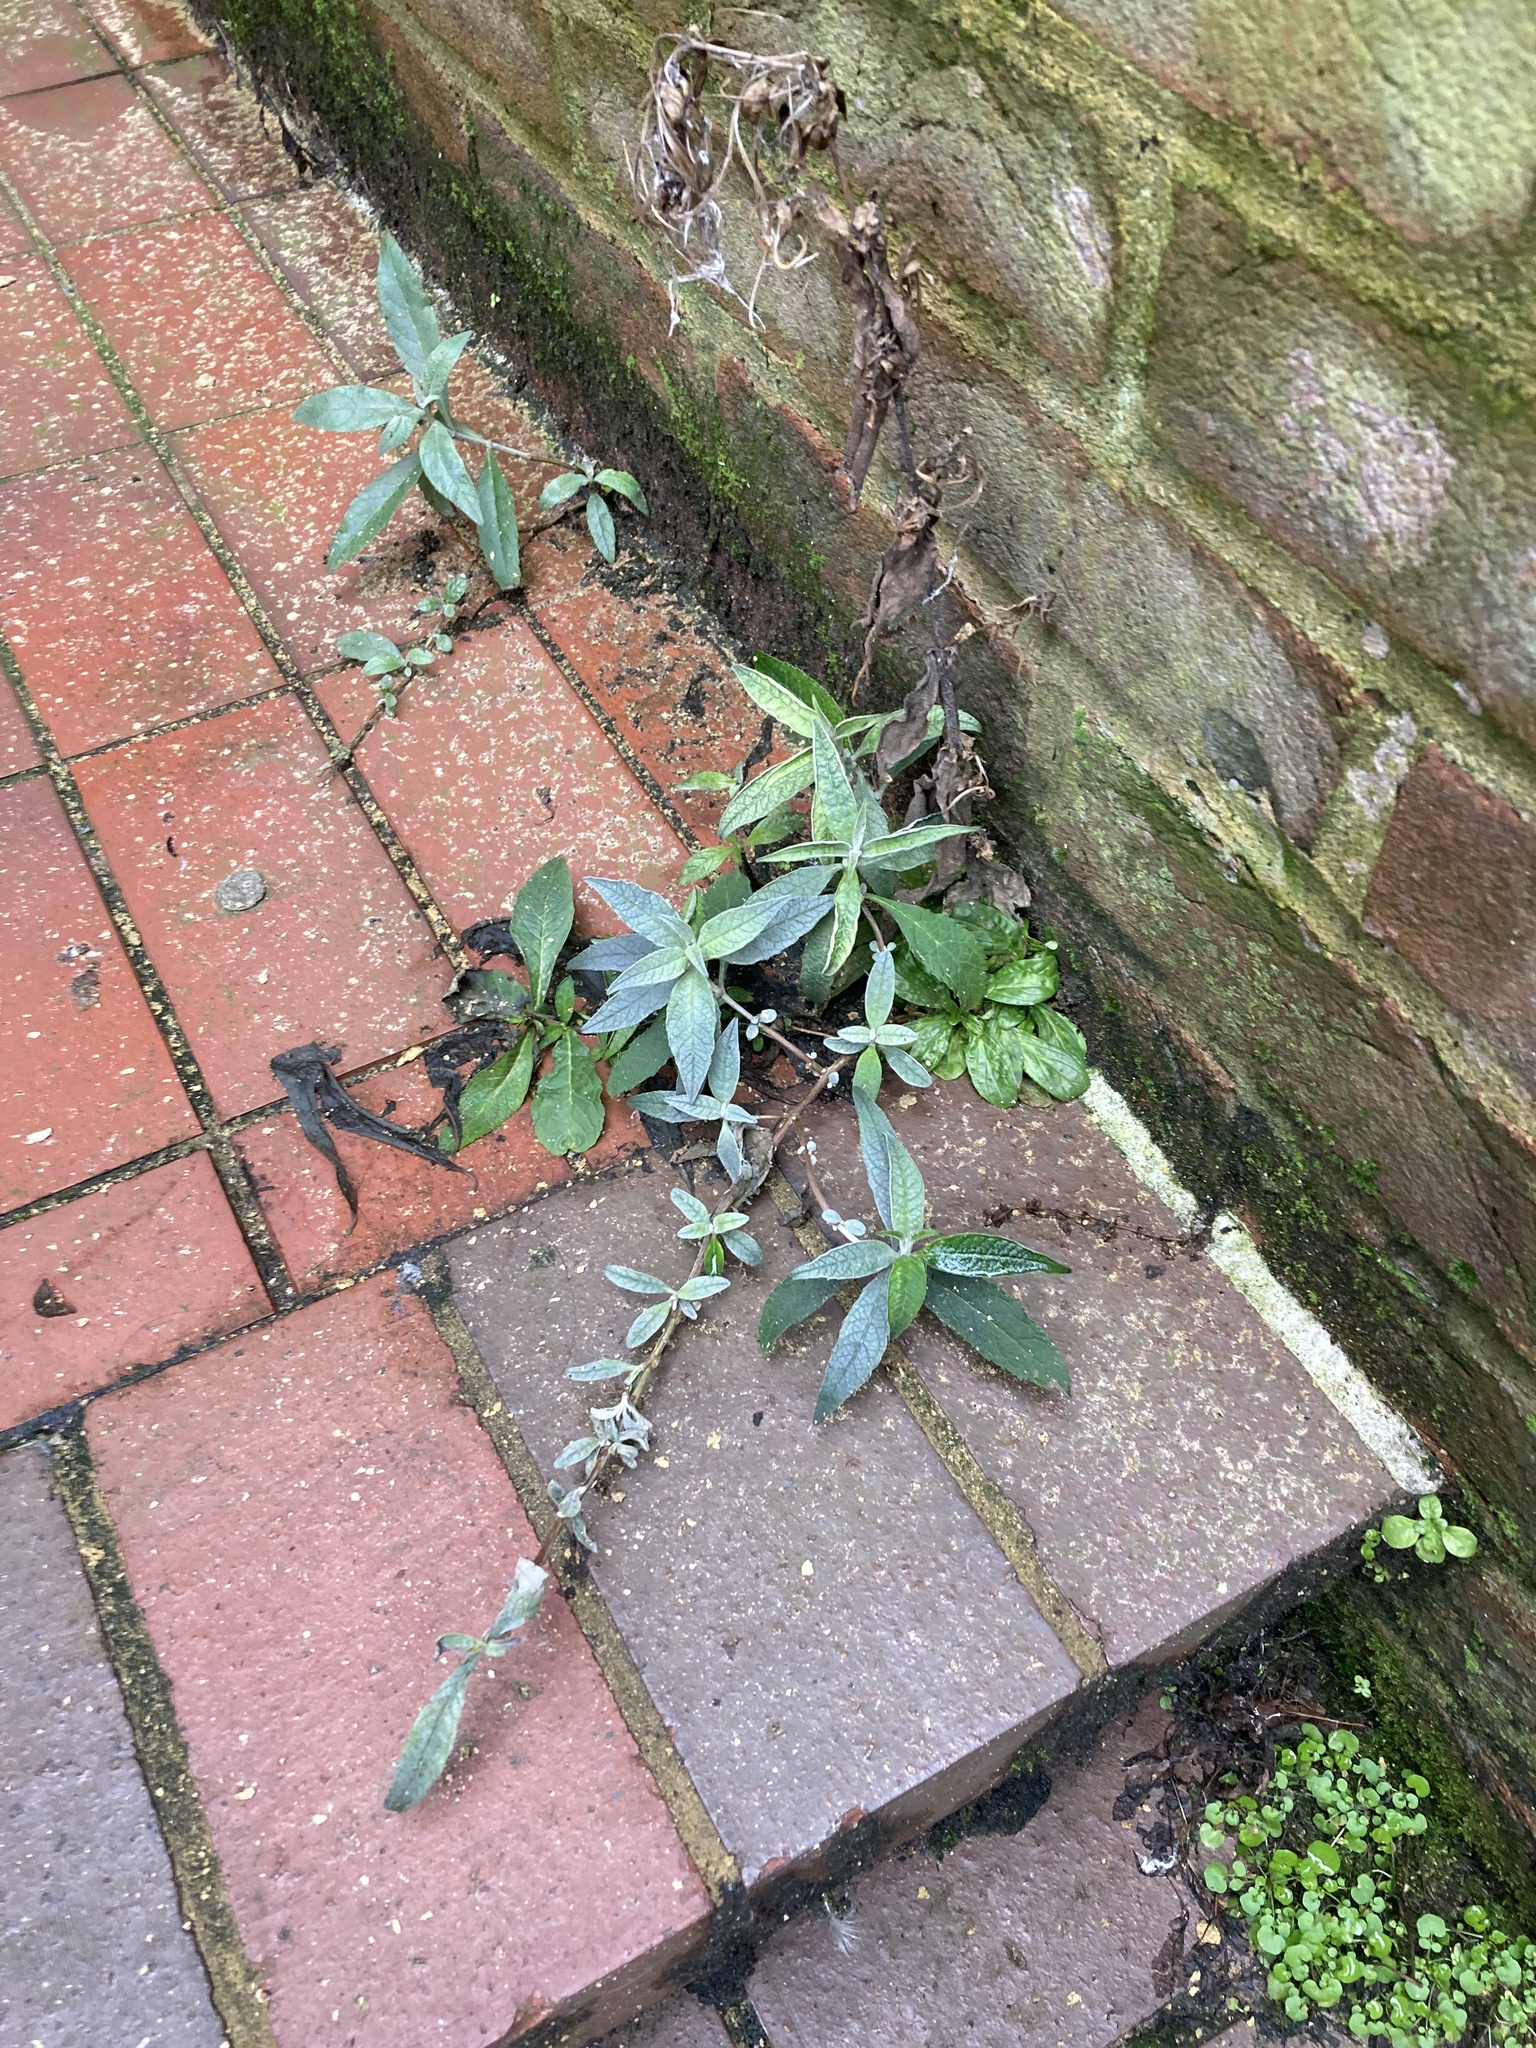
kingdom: Plantae
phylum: Tracheophyta
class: Magnoliopsida
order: Lamiales
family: Scrophulariaceae
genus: Buddleja
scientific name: Buddleja davidii
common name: Butterfly-bush
